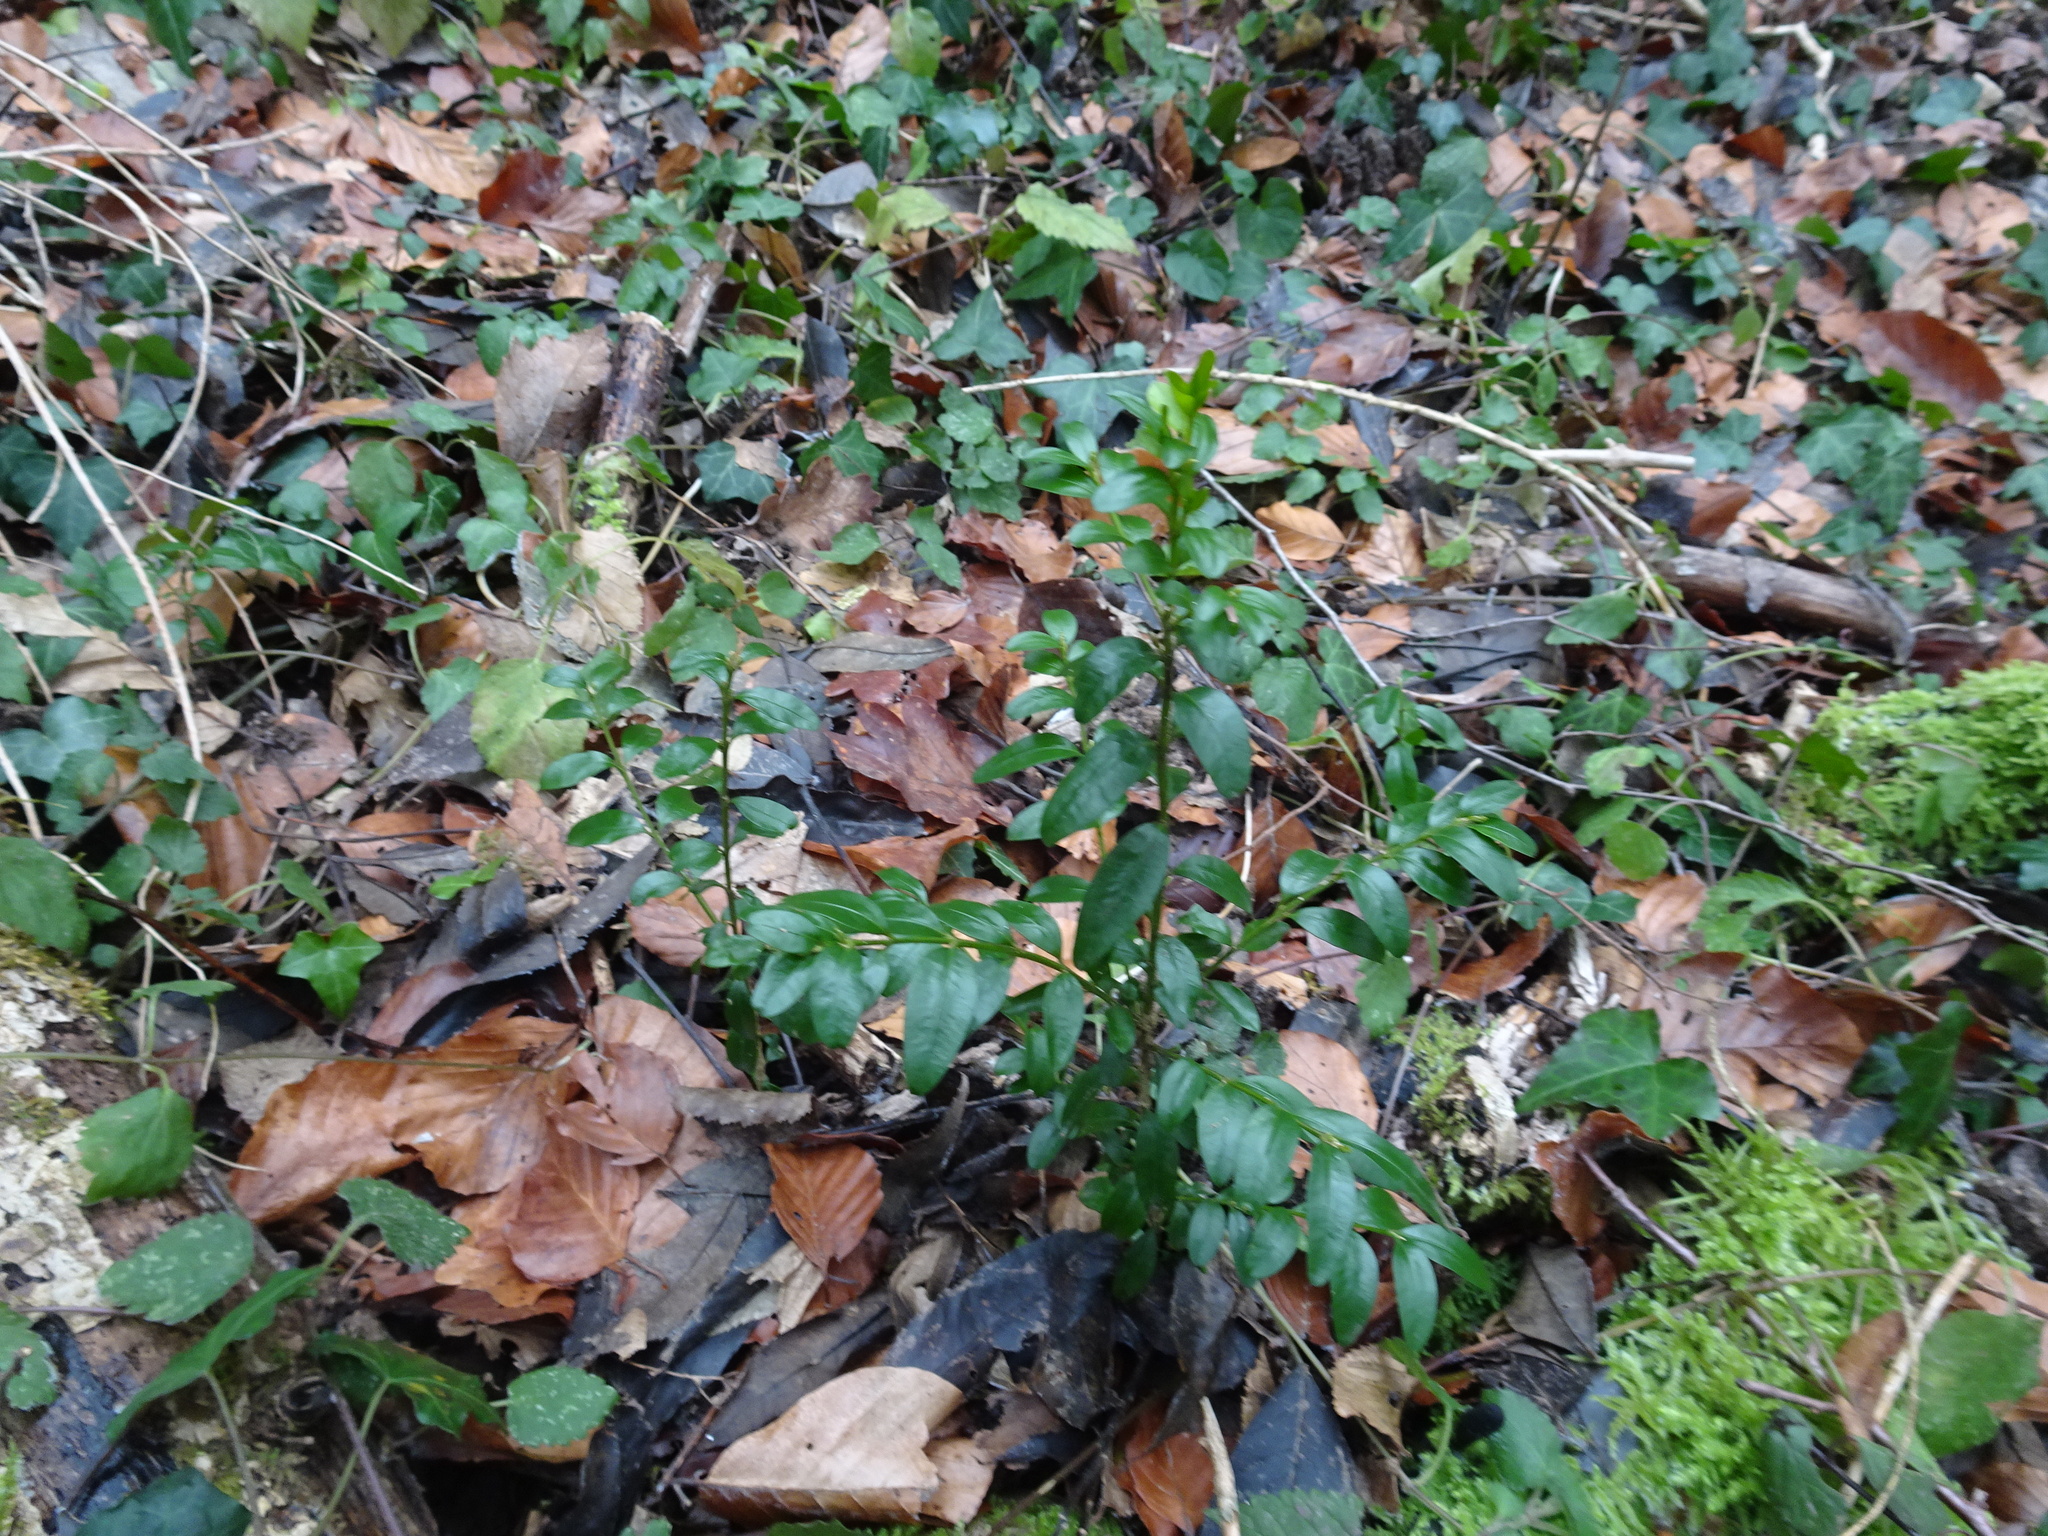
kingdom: Plantae
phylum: Tracheophyta
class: Magnoliopsida
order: Buxales
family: Buxaceae
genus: Buxus
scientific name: Buxus sempervirens
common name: Box
